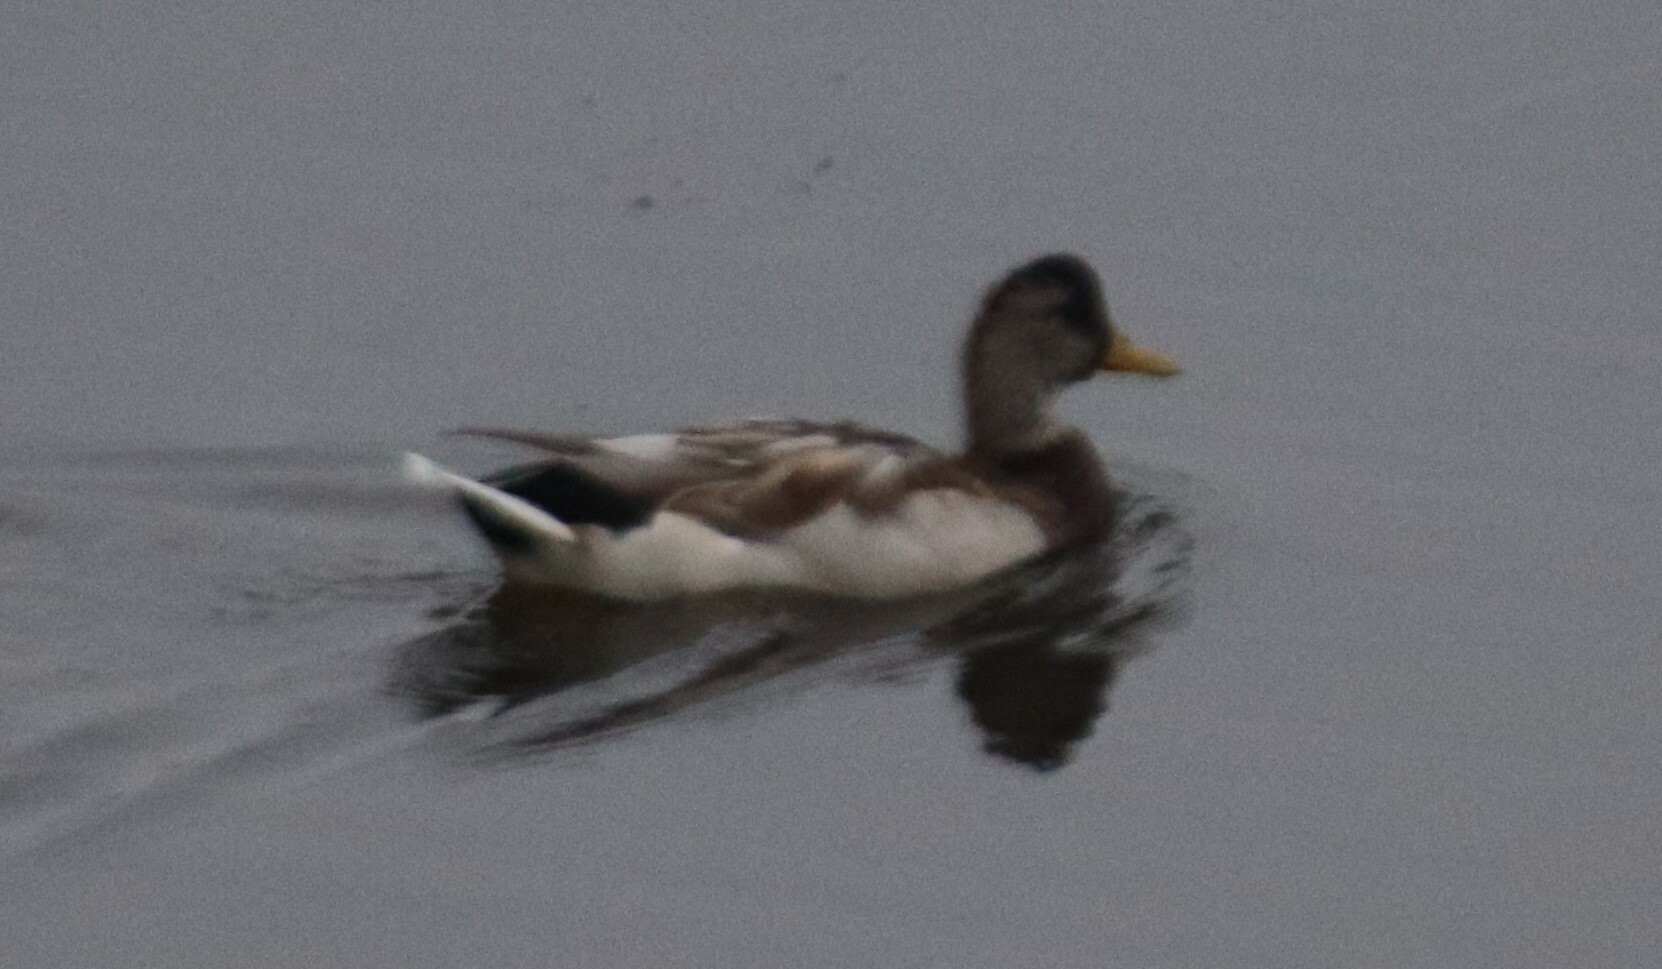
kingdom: Animalia
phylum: Chordata
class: Aves
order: Anseriformes
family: Anatidae
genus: Anas
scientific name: Anas platyrhynchos
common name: Mallard
